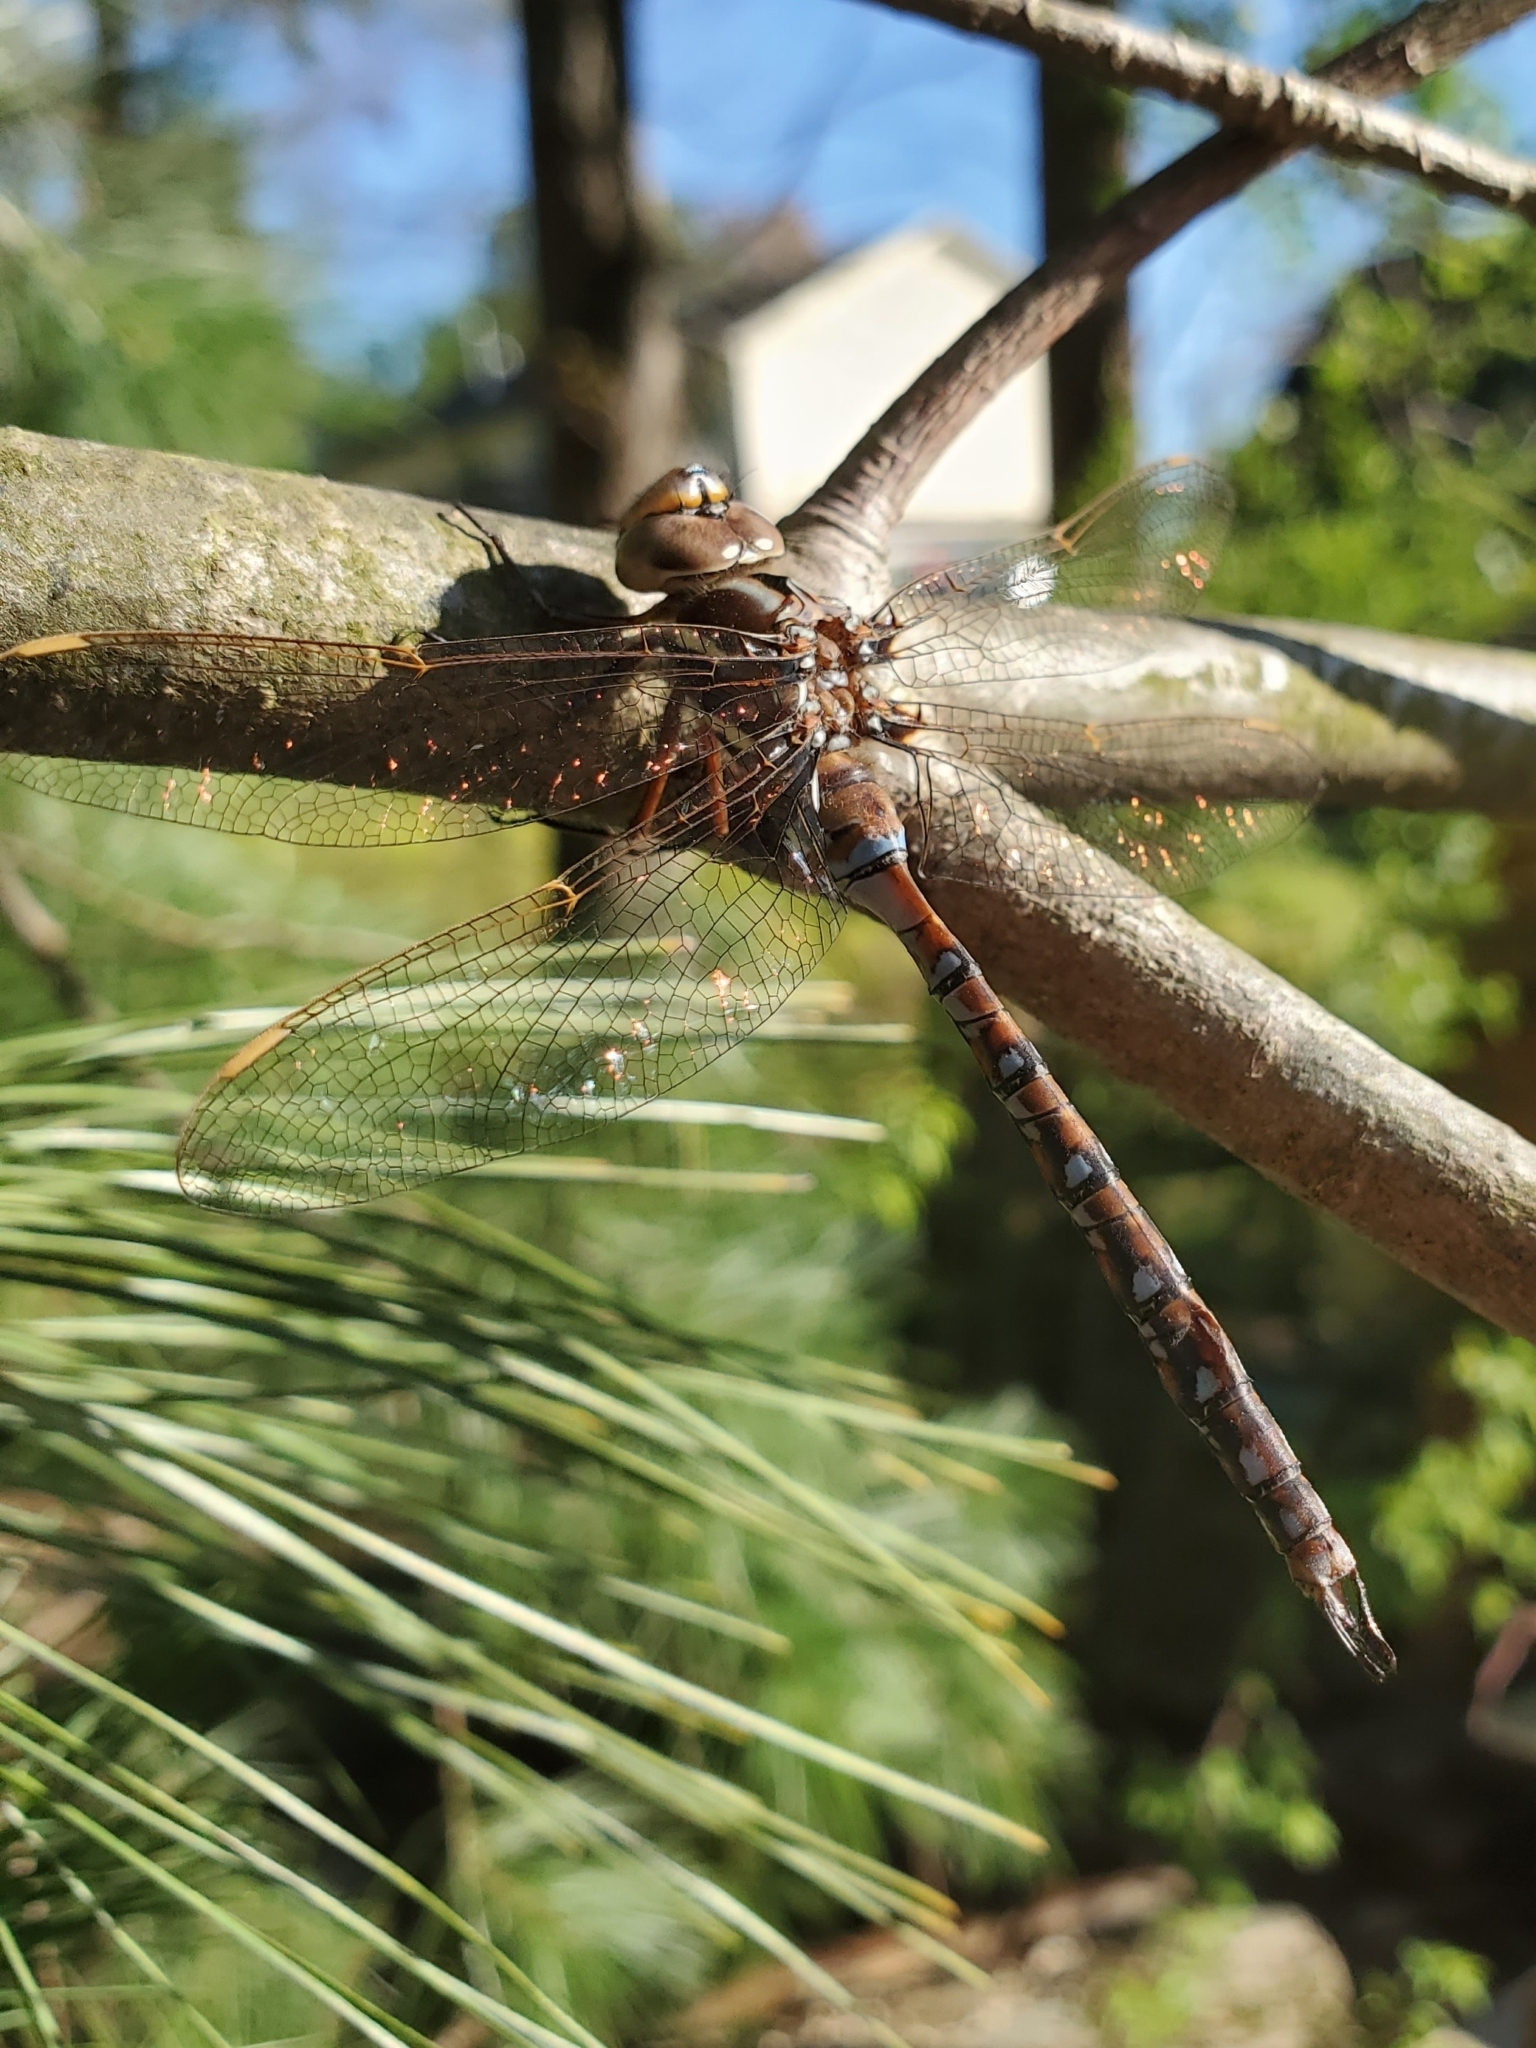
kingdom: Animalia
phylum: Arthropoda
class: Insecta
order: Odonata
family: Aeshnidae
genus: Basiaeschna
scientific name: Basiaeschna janata
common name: Springtime darner
